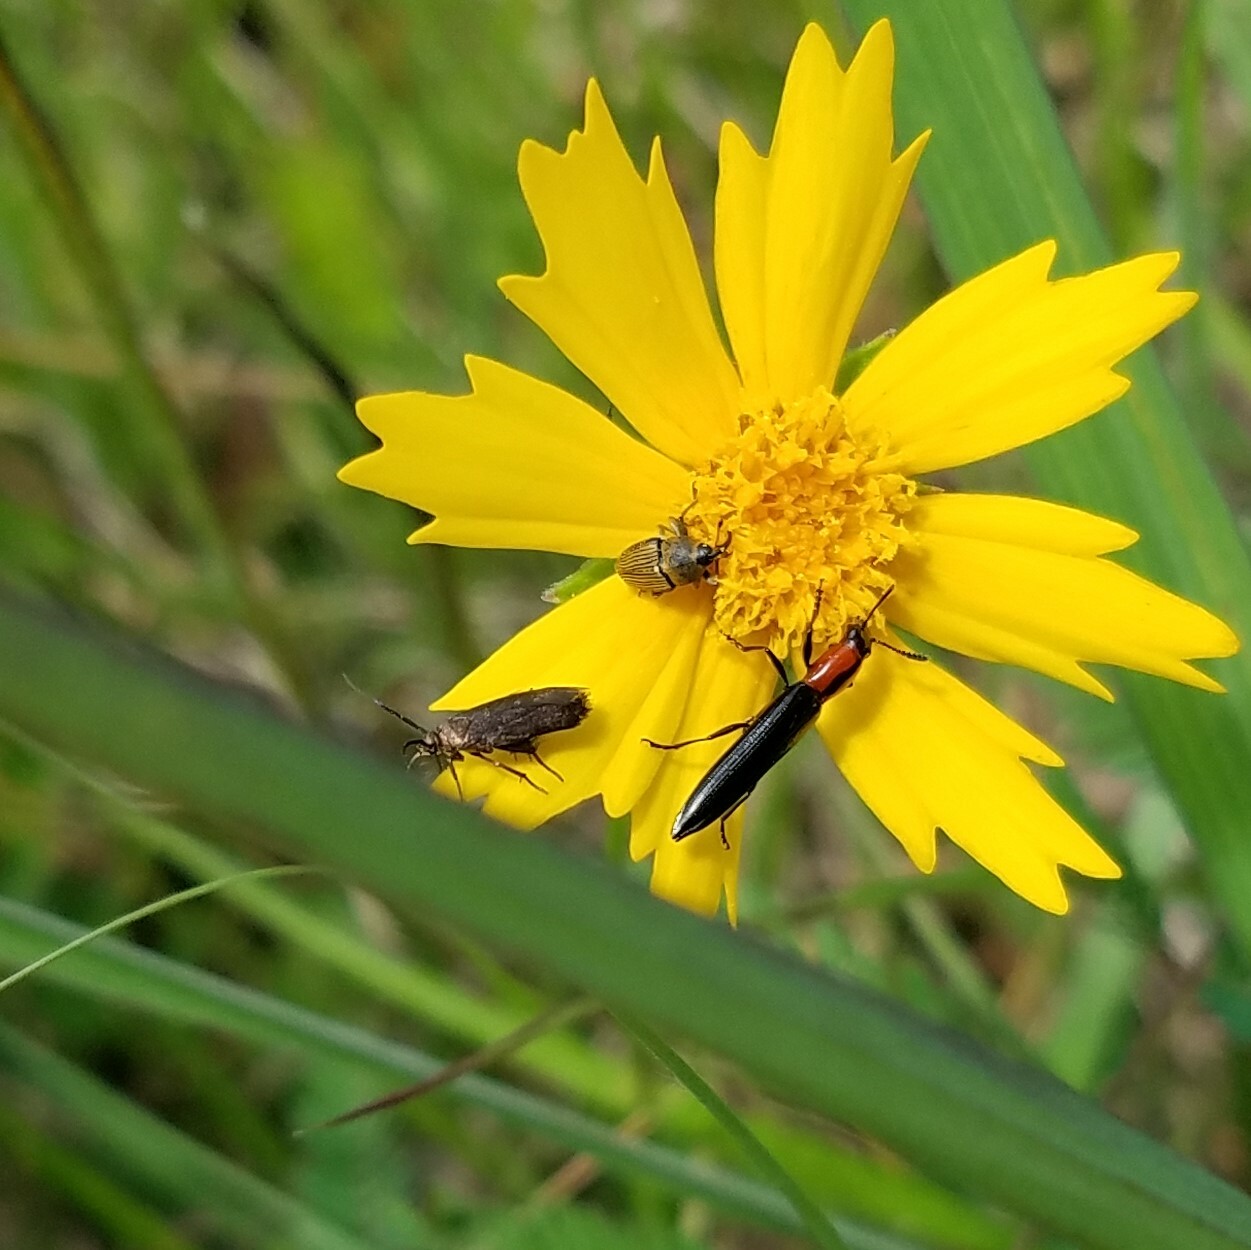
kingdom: Animalia
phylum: Arthropoda
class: Insecta
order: Coleoptera
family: Erotylidae
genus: Acropteroxys
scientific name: Acropteroxys gracilis
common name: Slender lizard beetle
